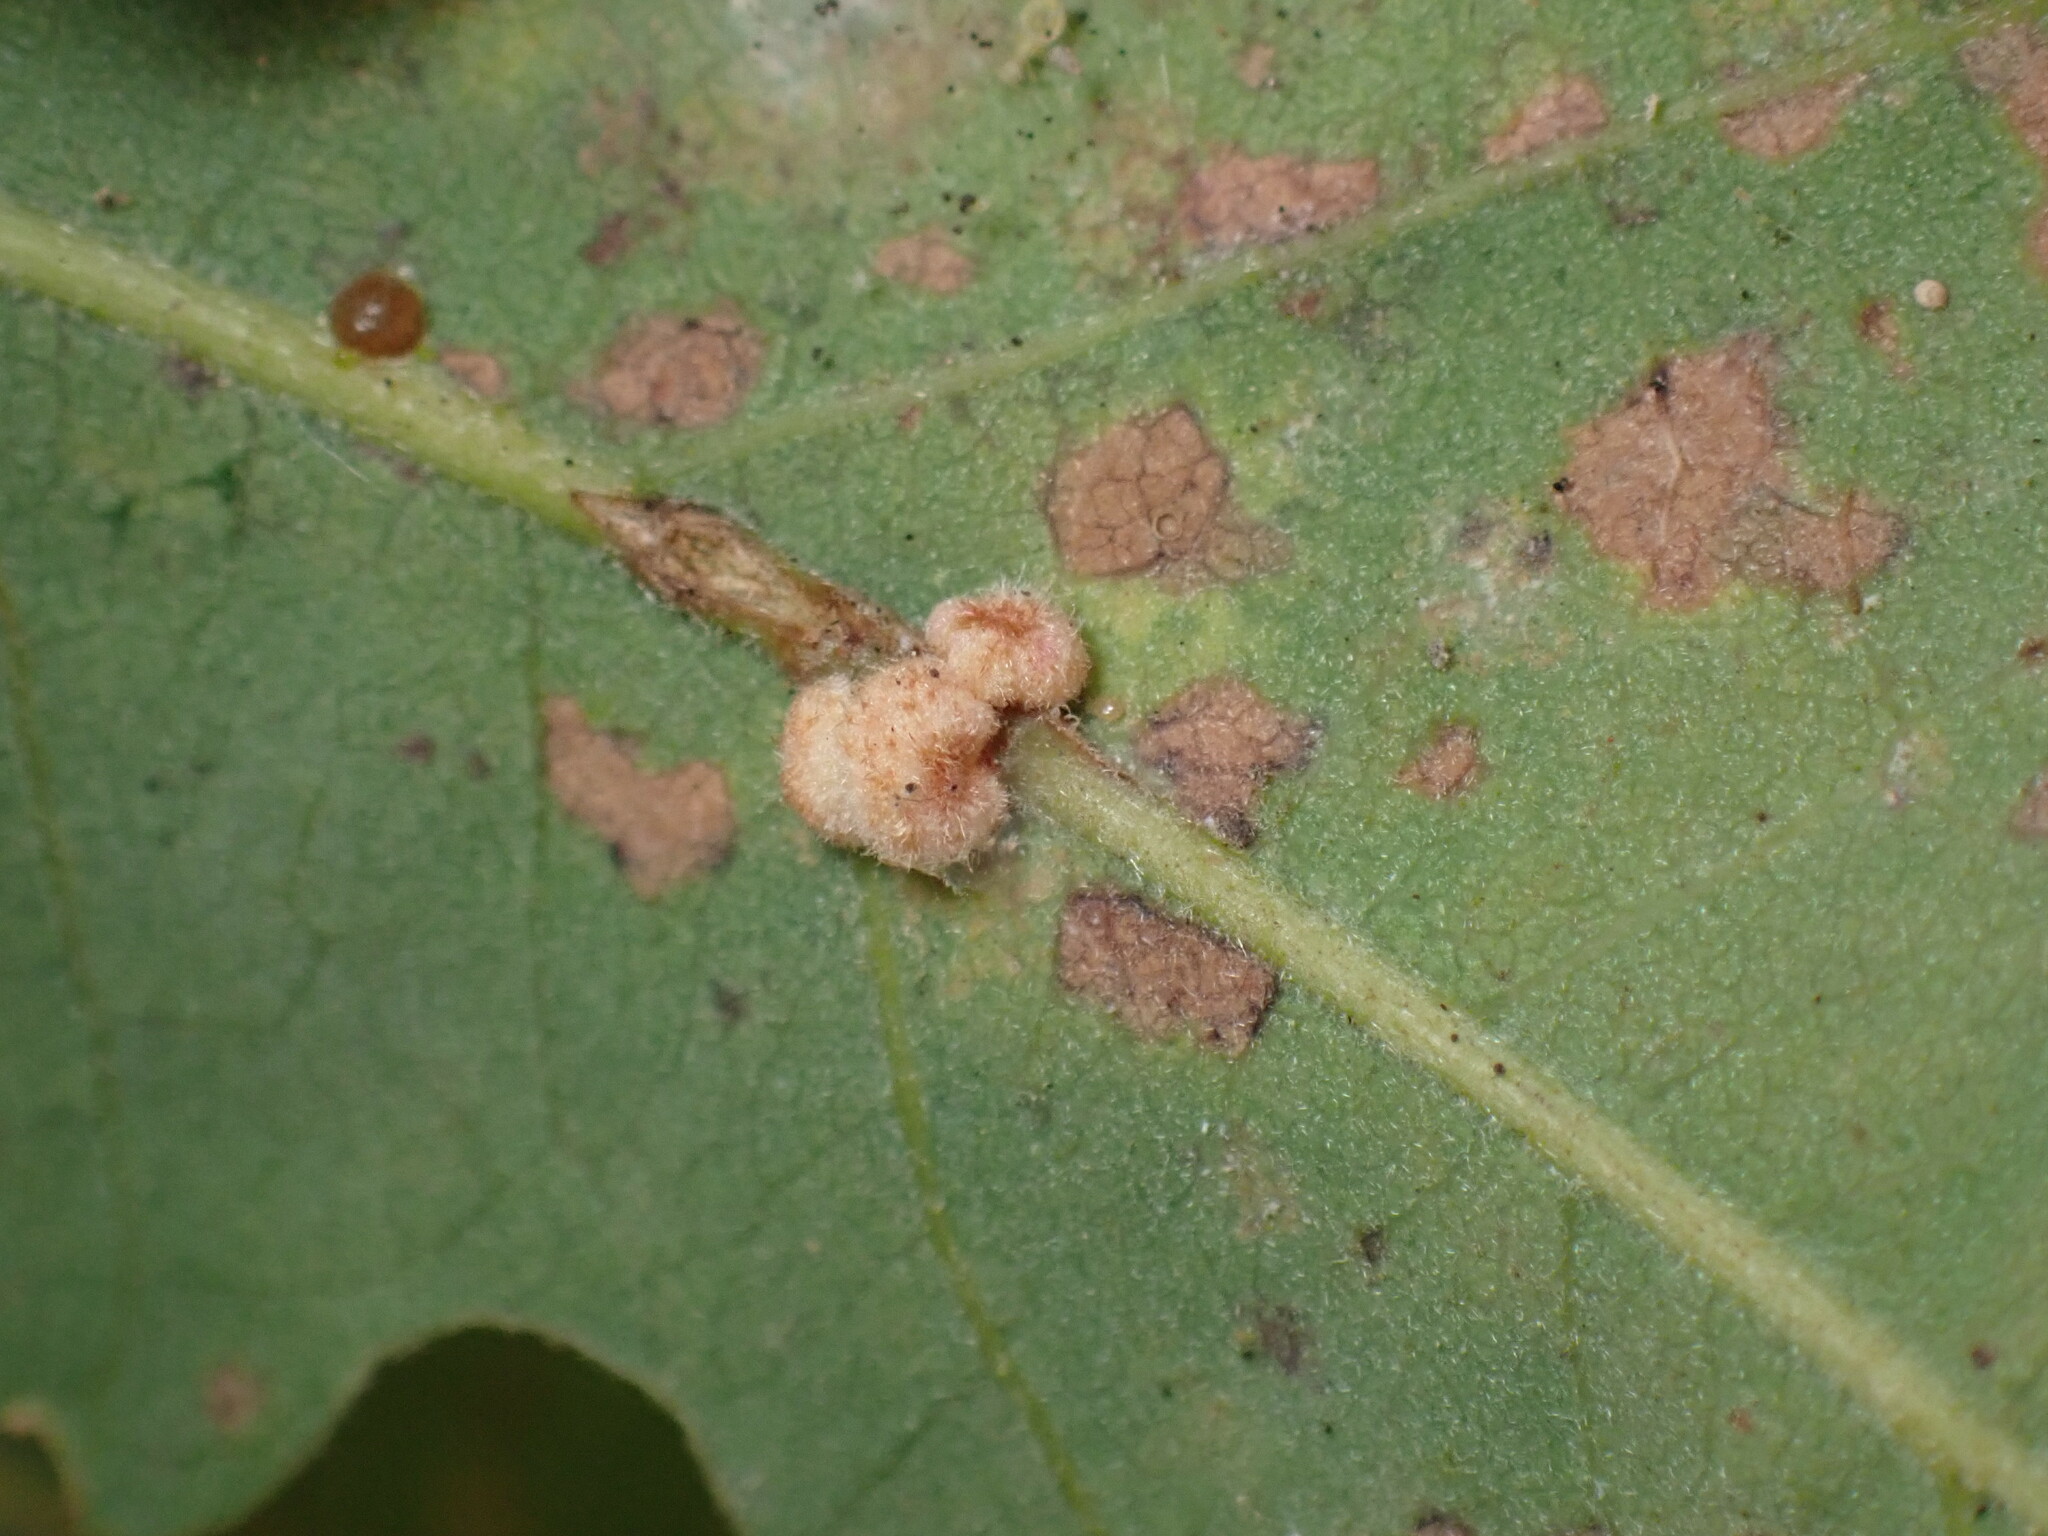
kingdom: Animalia
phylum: Arthropoda
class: Insecta
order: Hymenoptera
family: Cynipidae
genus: Andricus
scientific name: Andricus
